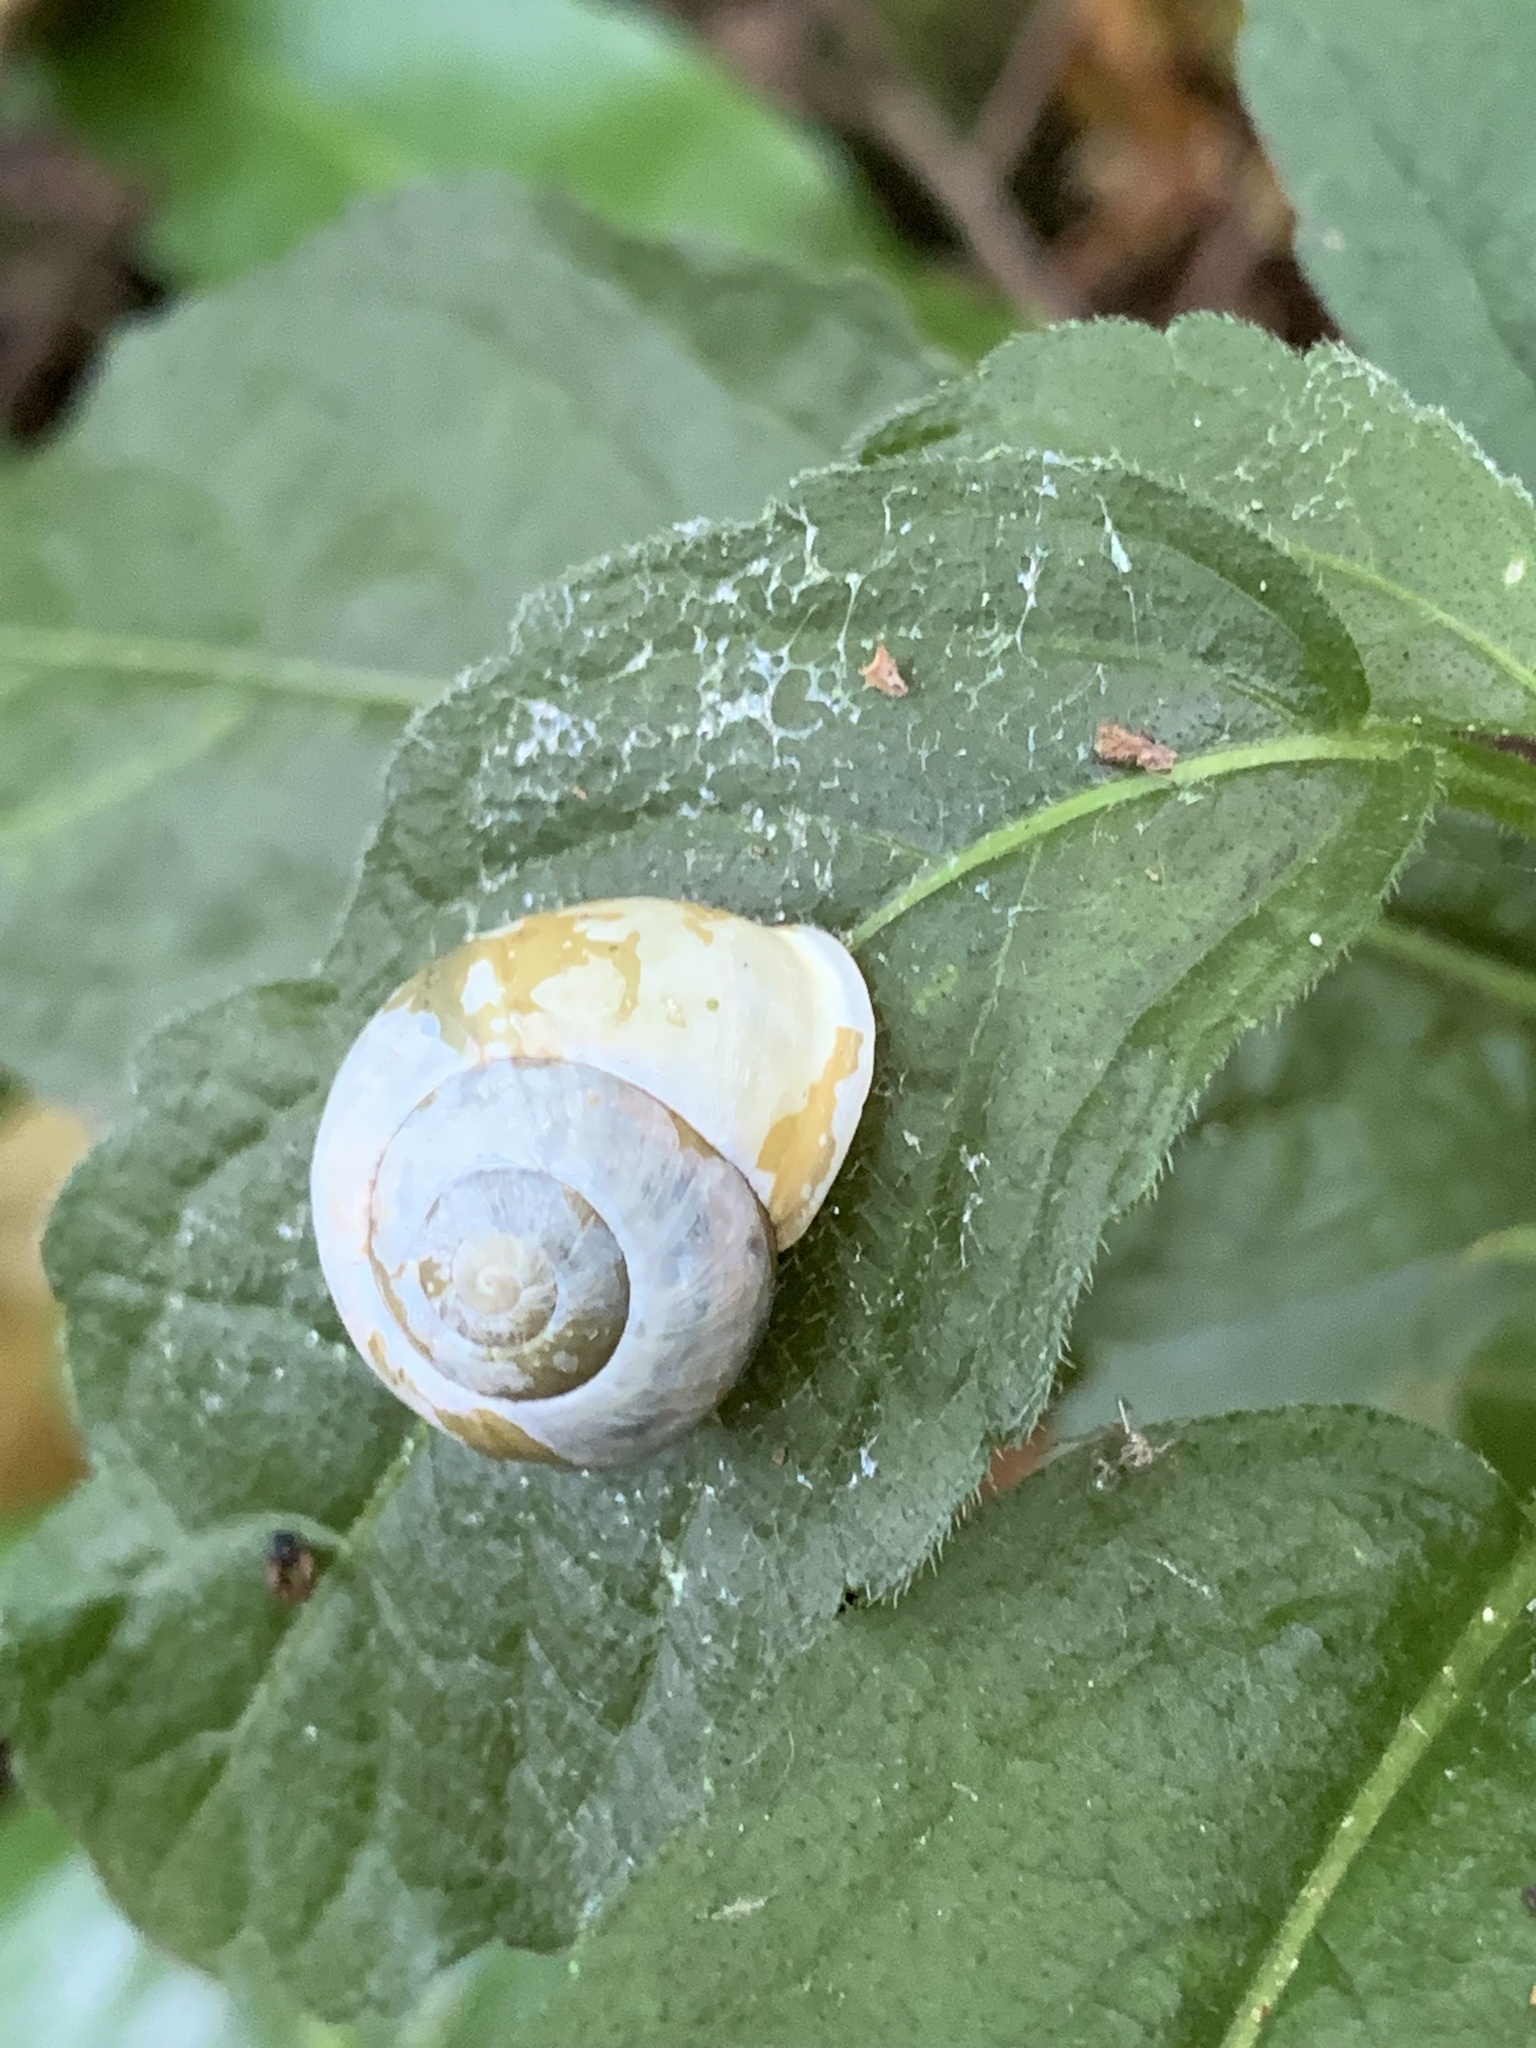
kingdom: Animalia
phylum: Mollusca
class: Gastropoda
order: Stylommatophora
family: Helicidae
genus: Cepaea
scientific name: Cepaea hortensis
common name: White-lip gardensnail
